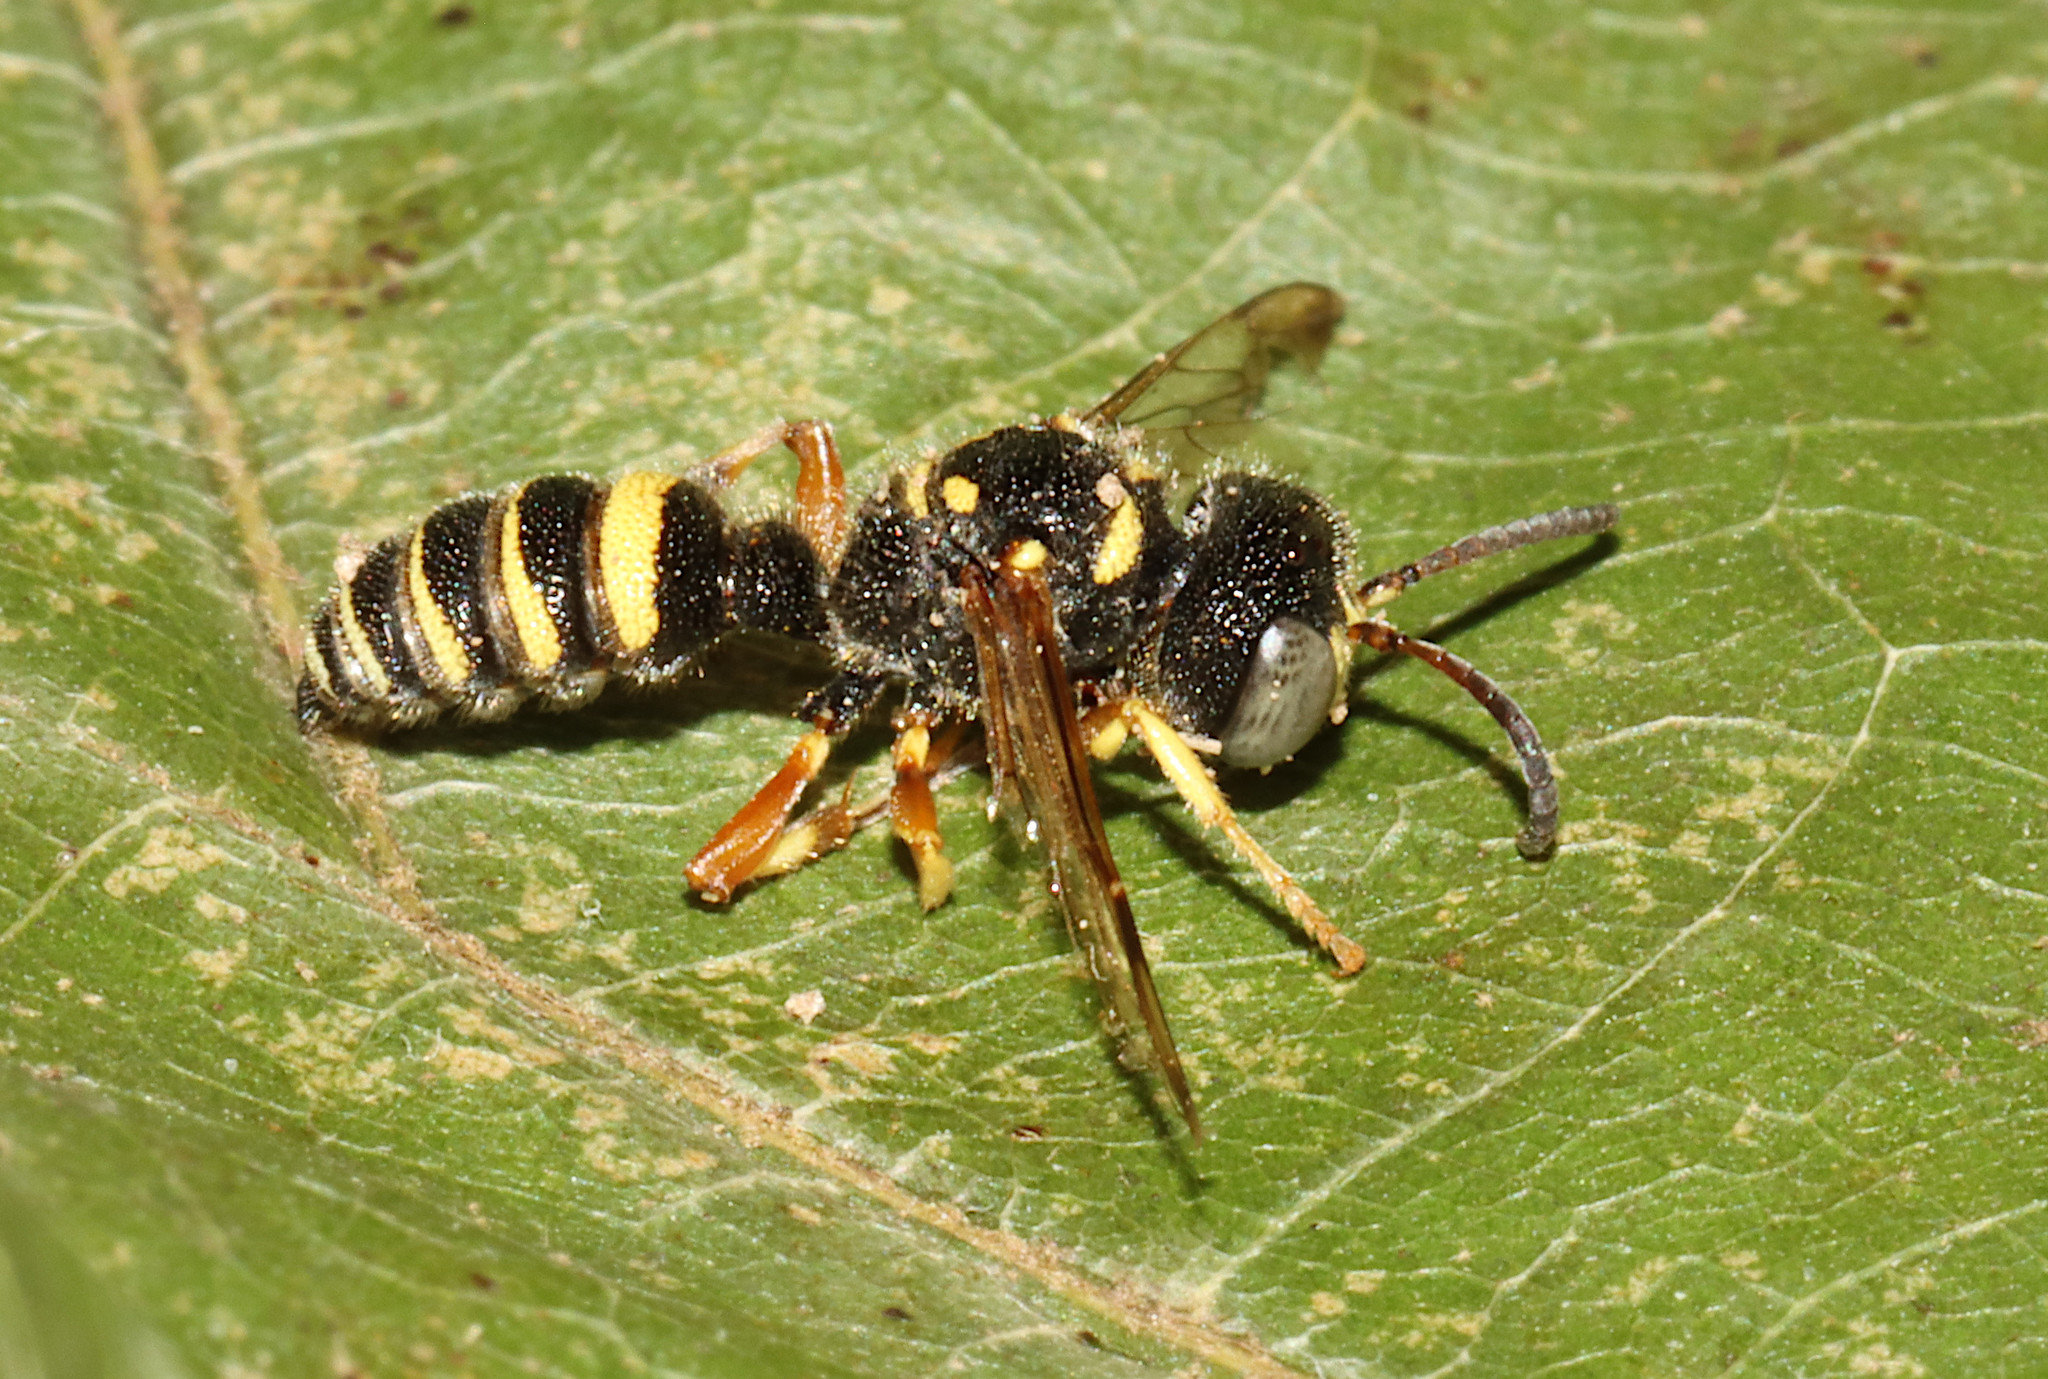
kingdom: Animalia
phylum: Arthropoda
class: Insecta
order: Hymenoptera
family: Crabronidae
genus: Cerceris
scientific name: Cerceris
